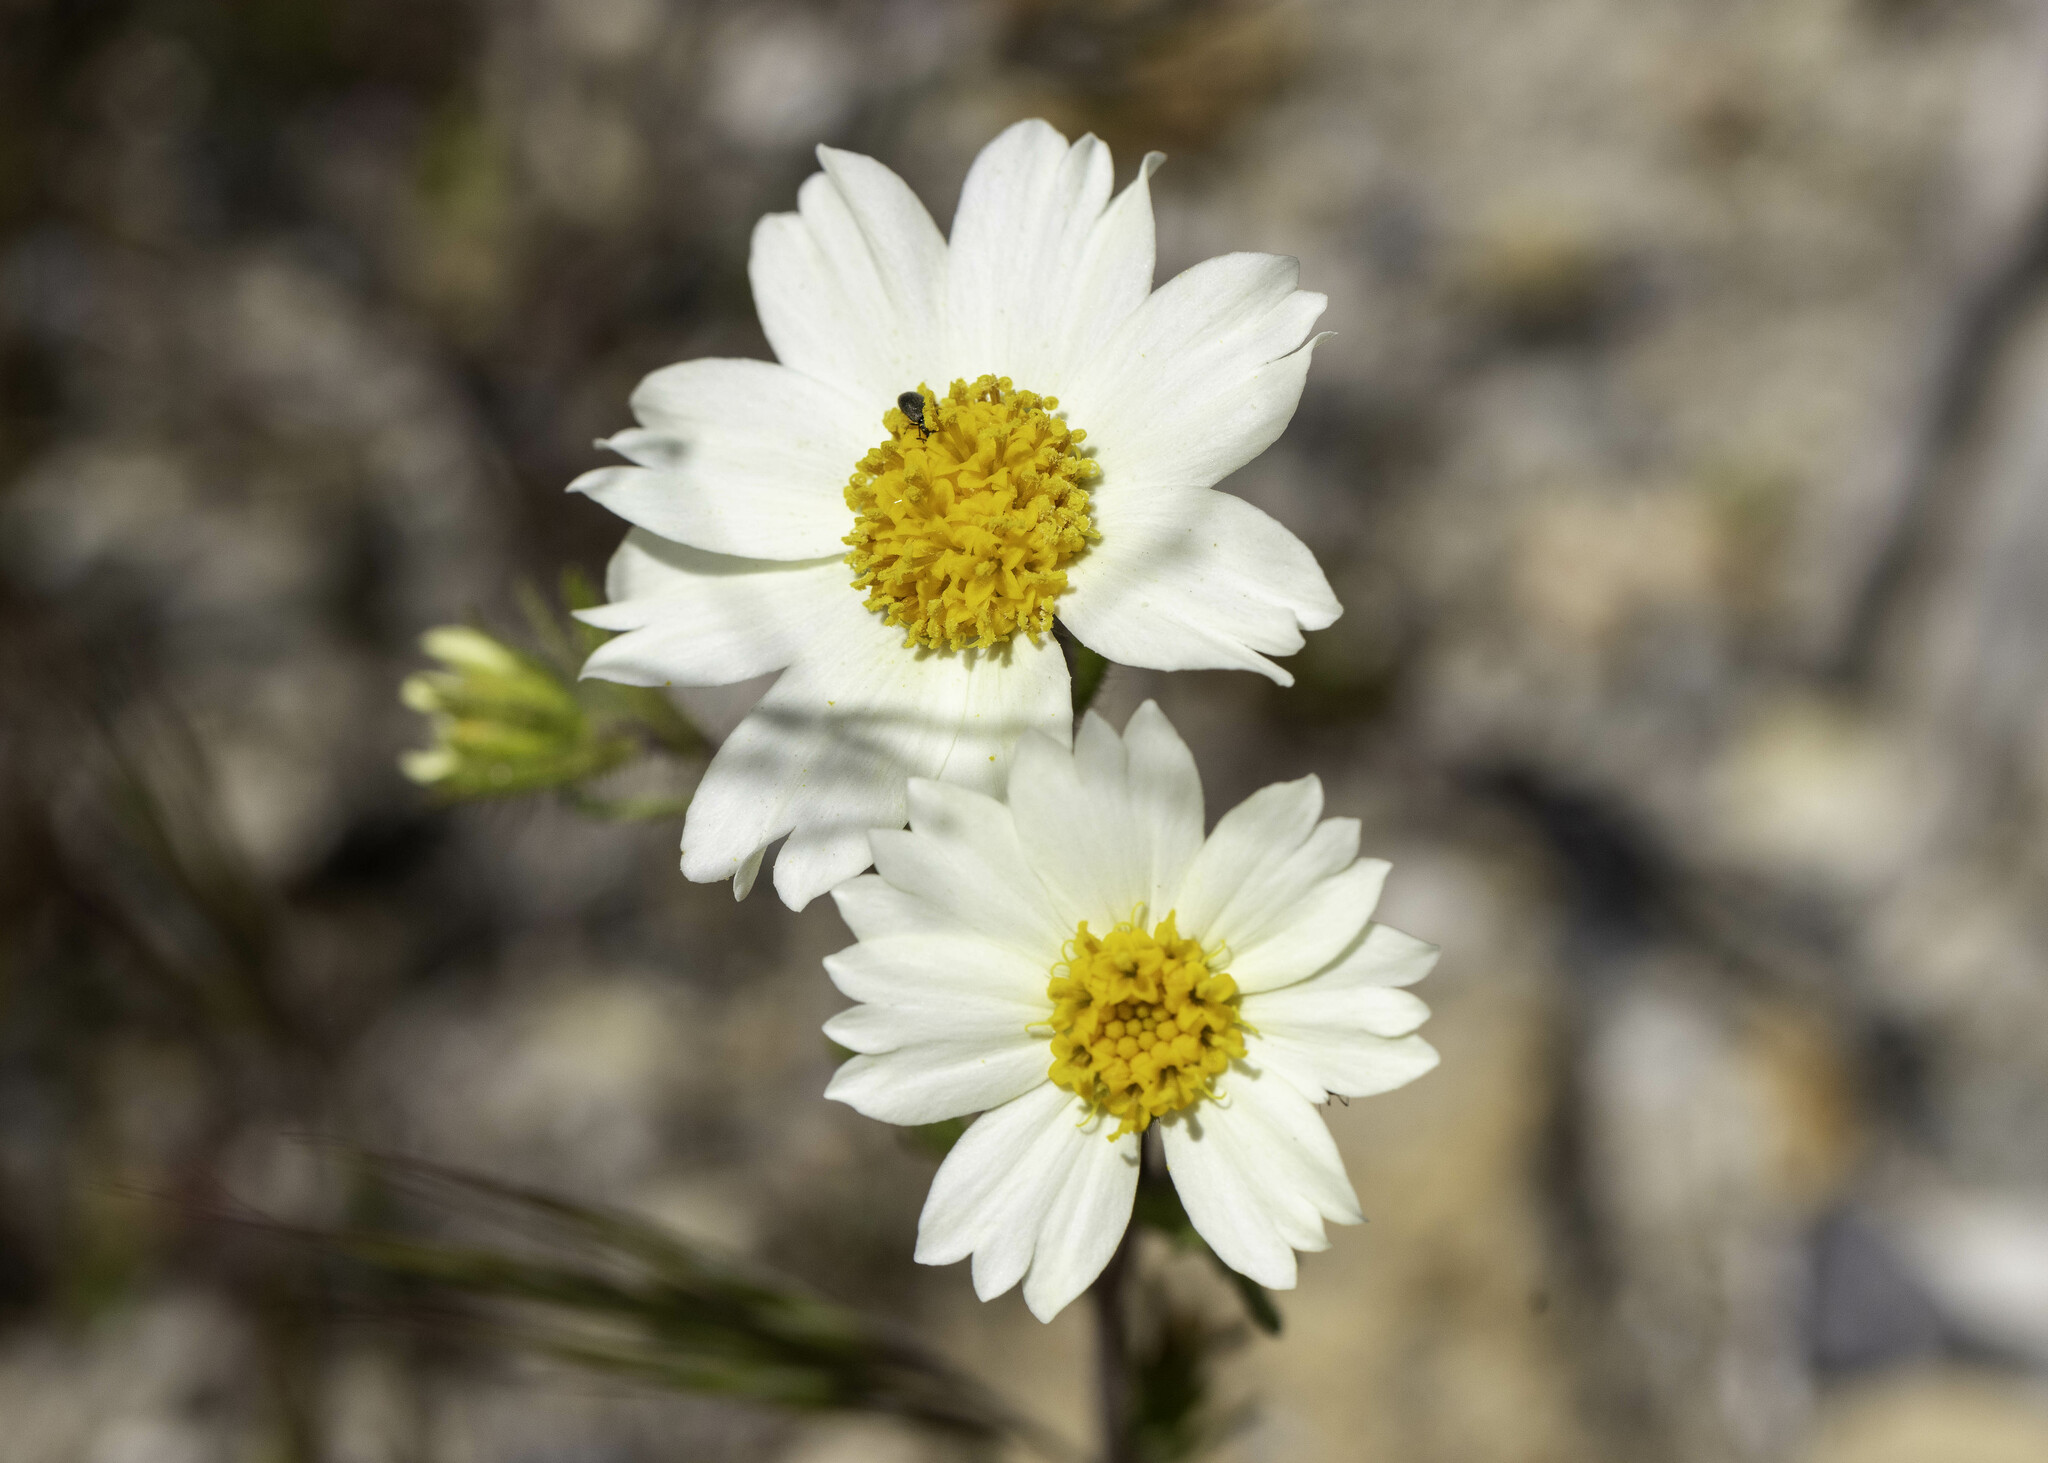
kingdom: Plantae
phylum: Tracheophyta
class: Magnoliopsida
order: Asterales
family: Asteraceae
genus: Layia
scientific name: Layia pentachaeta
